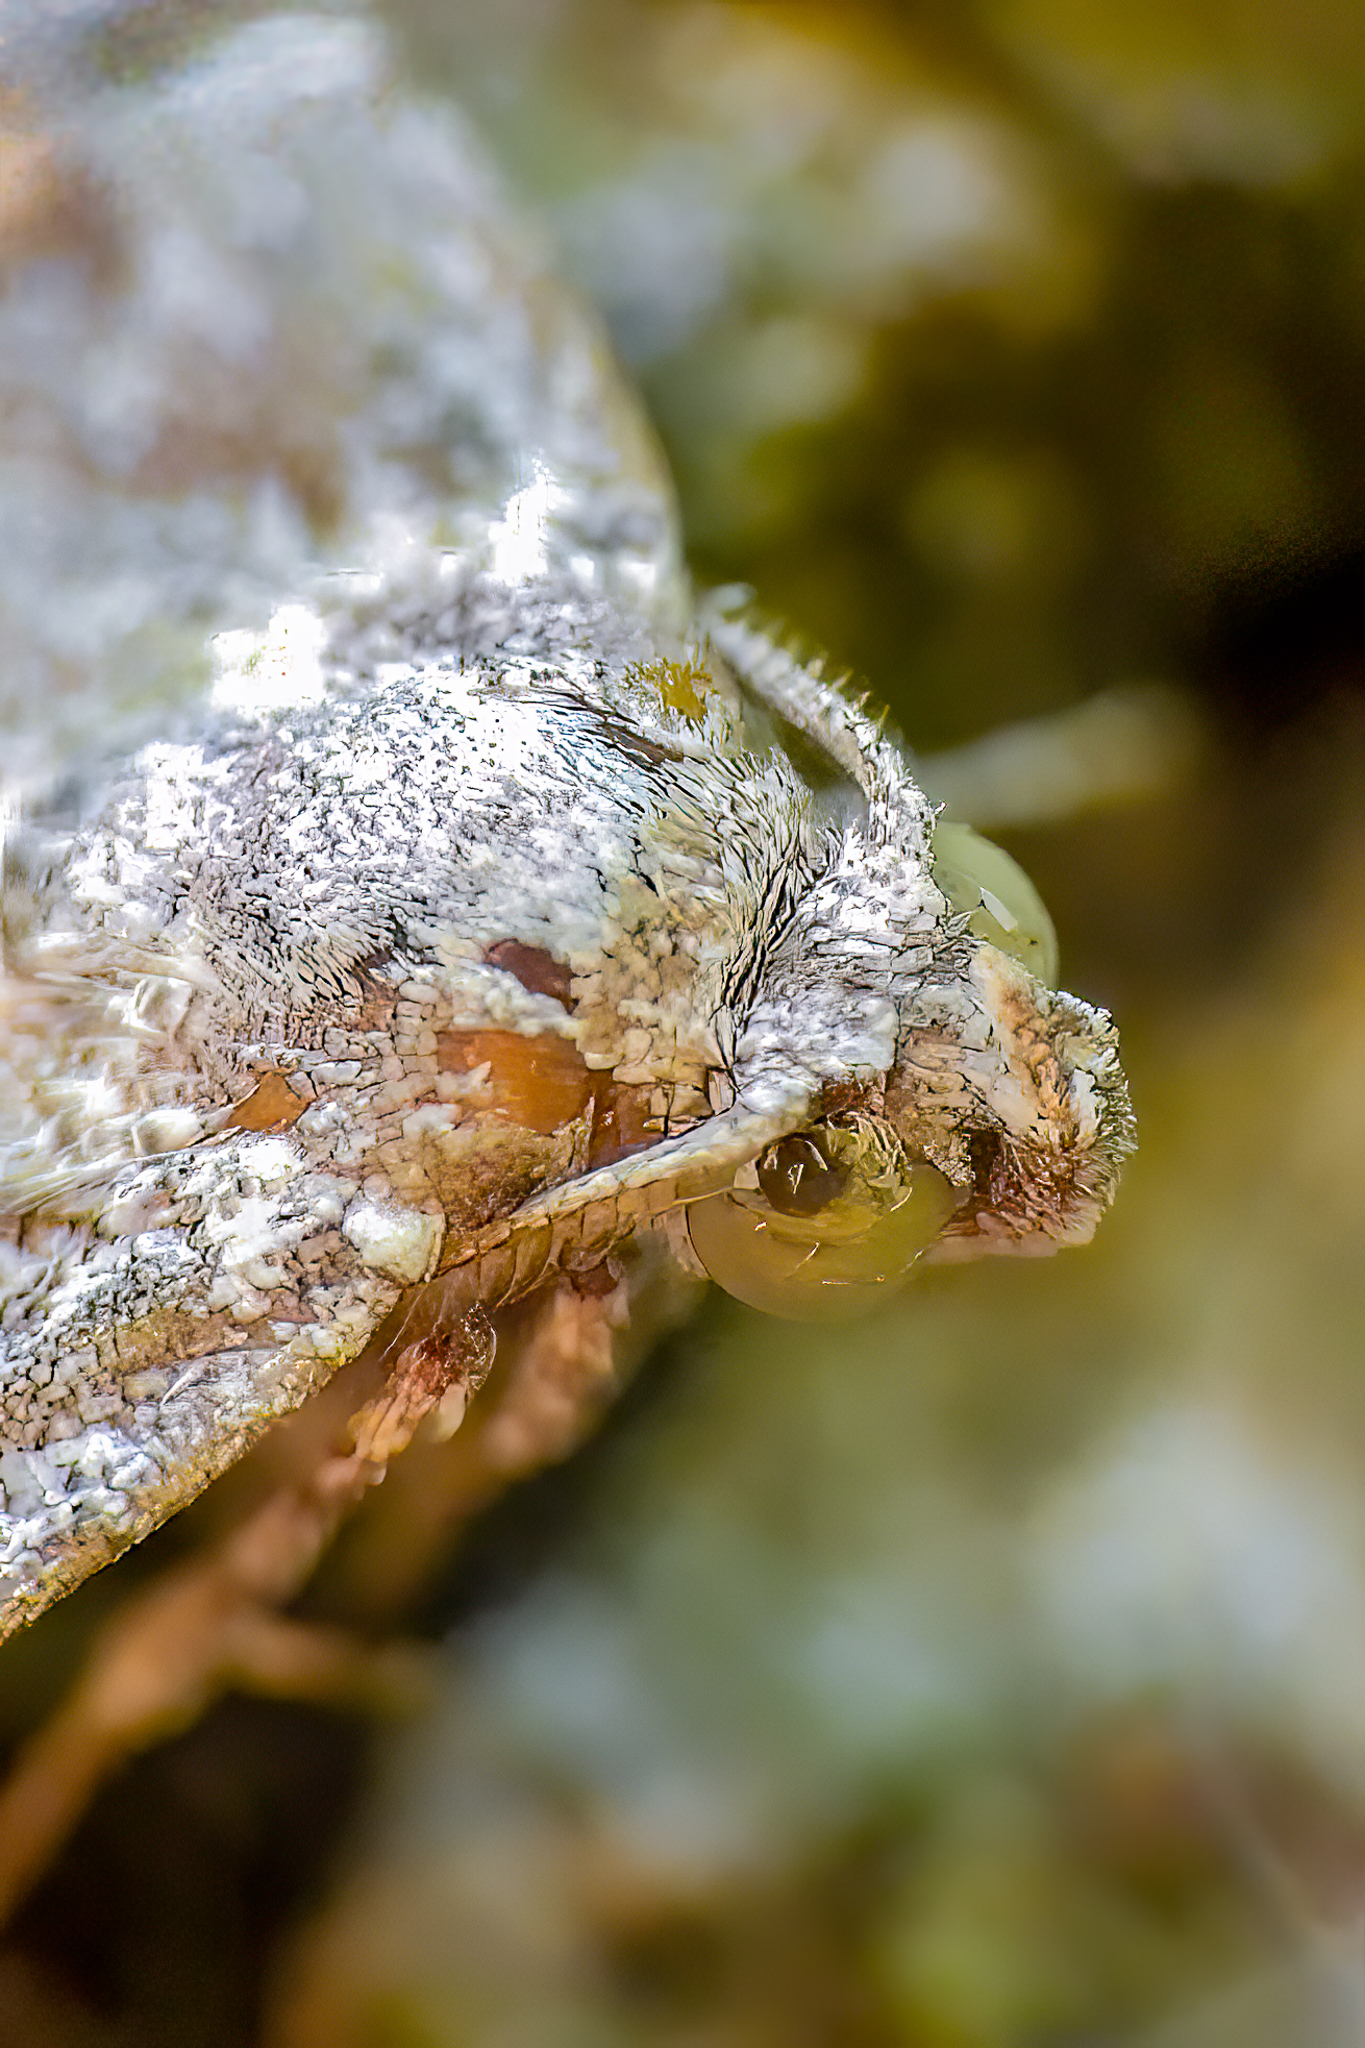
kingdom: Animalia
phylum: Arthropoda
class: Insecta
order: Lepidoptera
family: Erebidae
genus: Idia
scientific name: Idia americalis
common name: American idia moth
